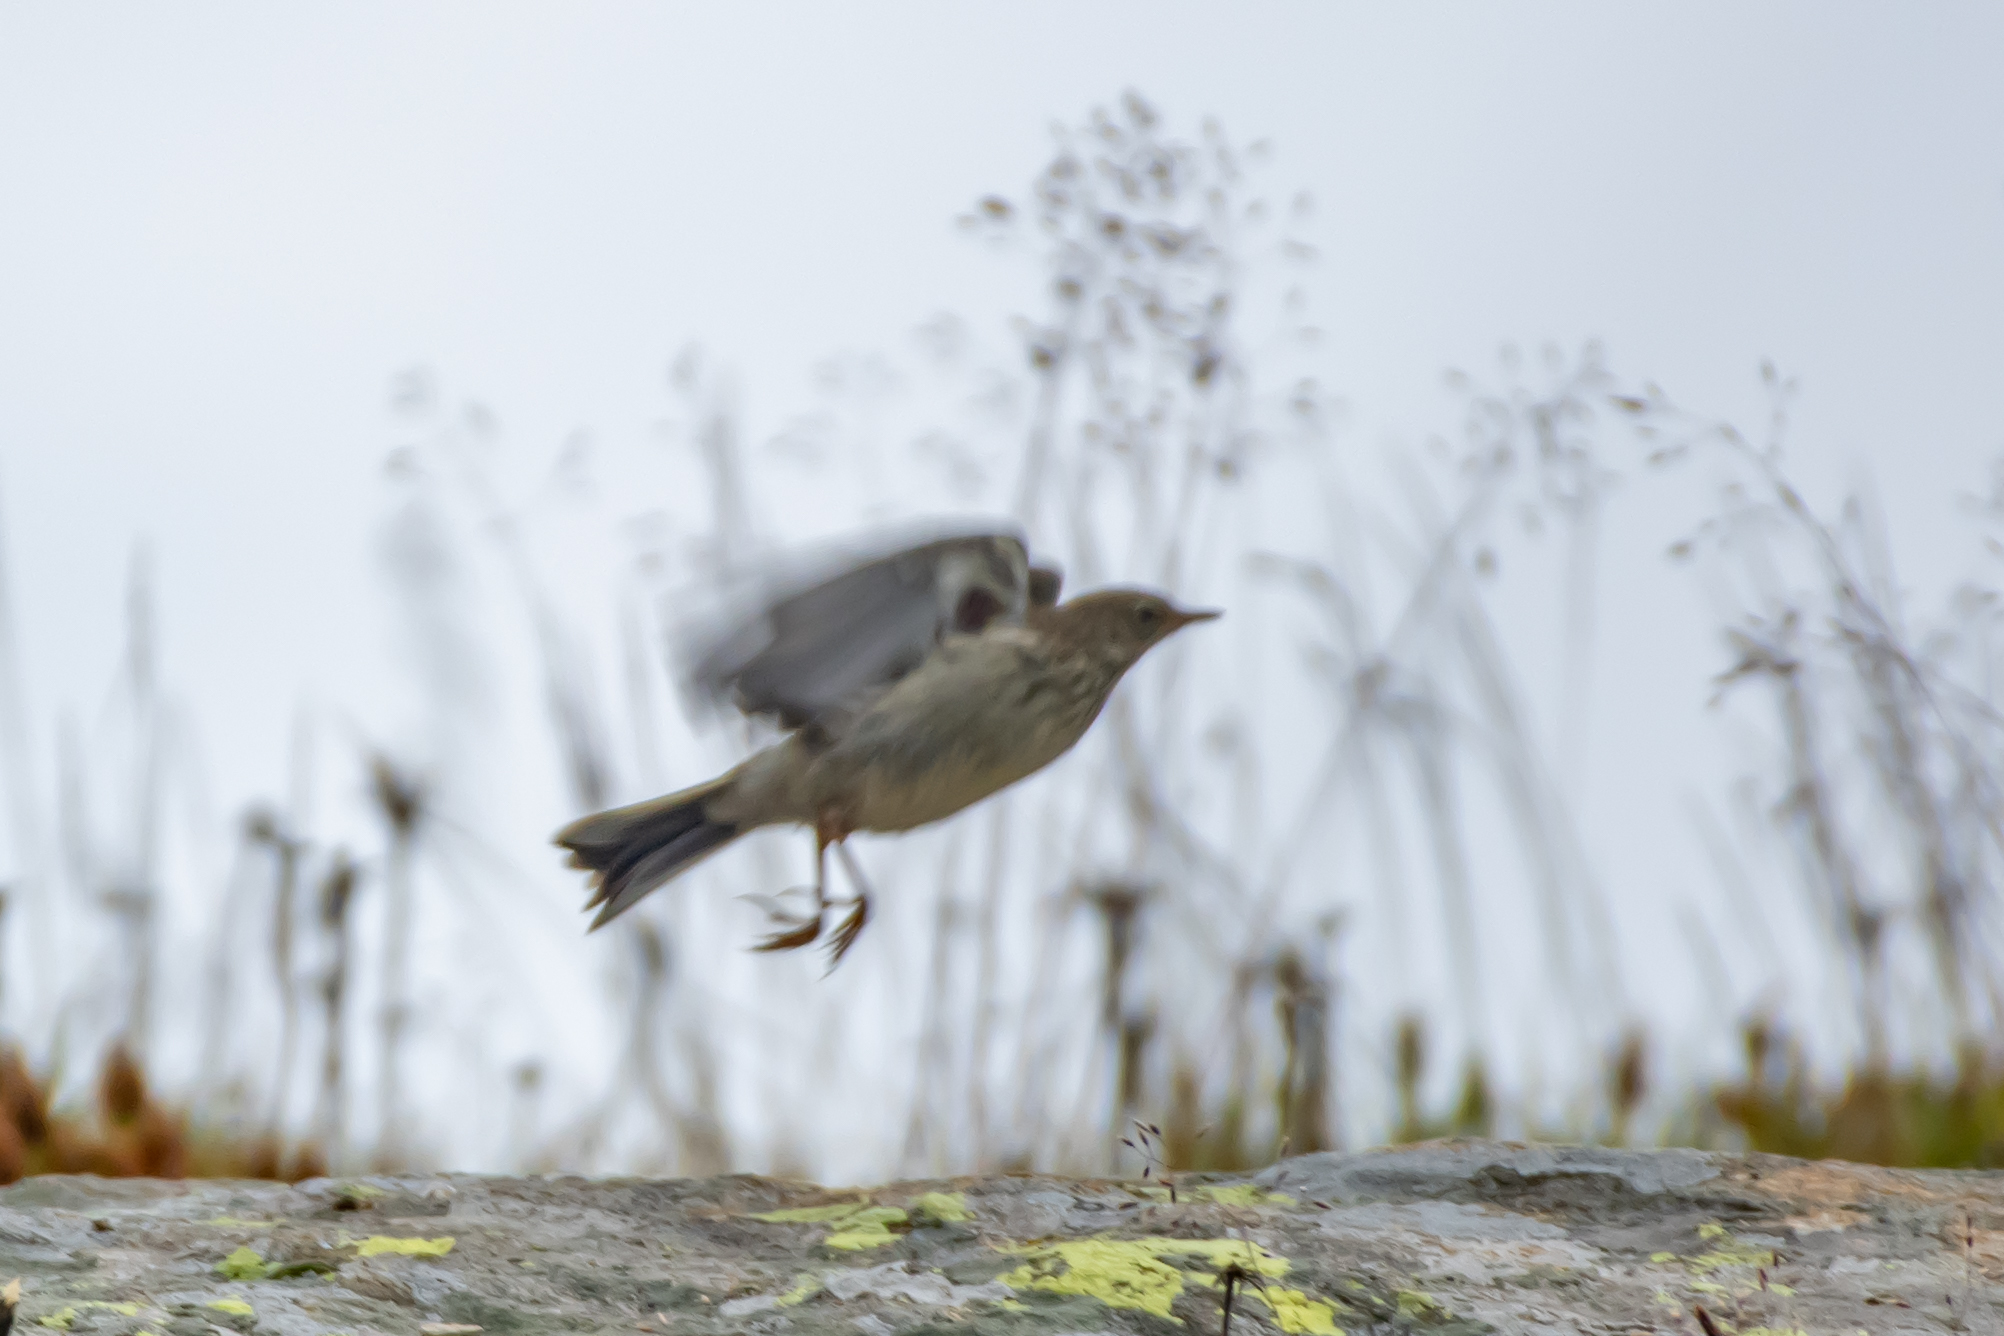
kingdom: Animalia
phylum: Chordata
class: Aves
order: Passeriformes
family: Motacillidae
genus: Anthus
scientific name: Anthus spinoletta
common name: Water pipit
